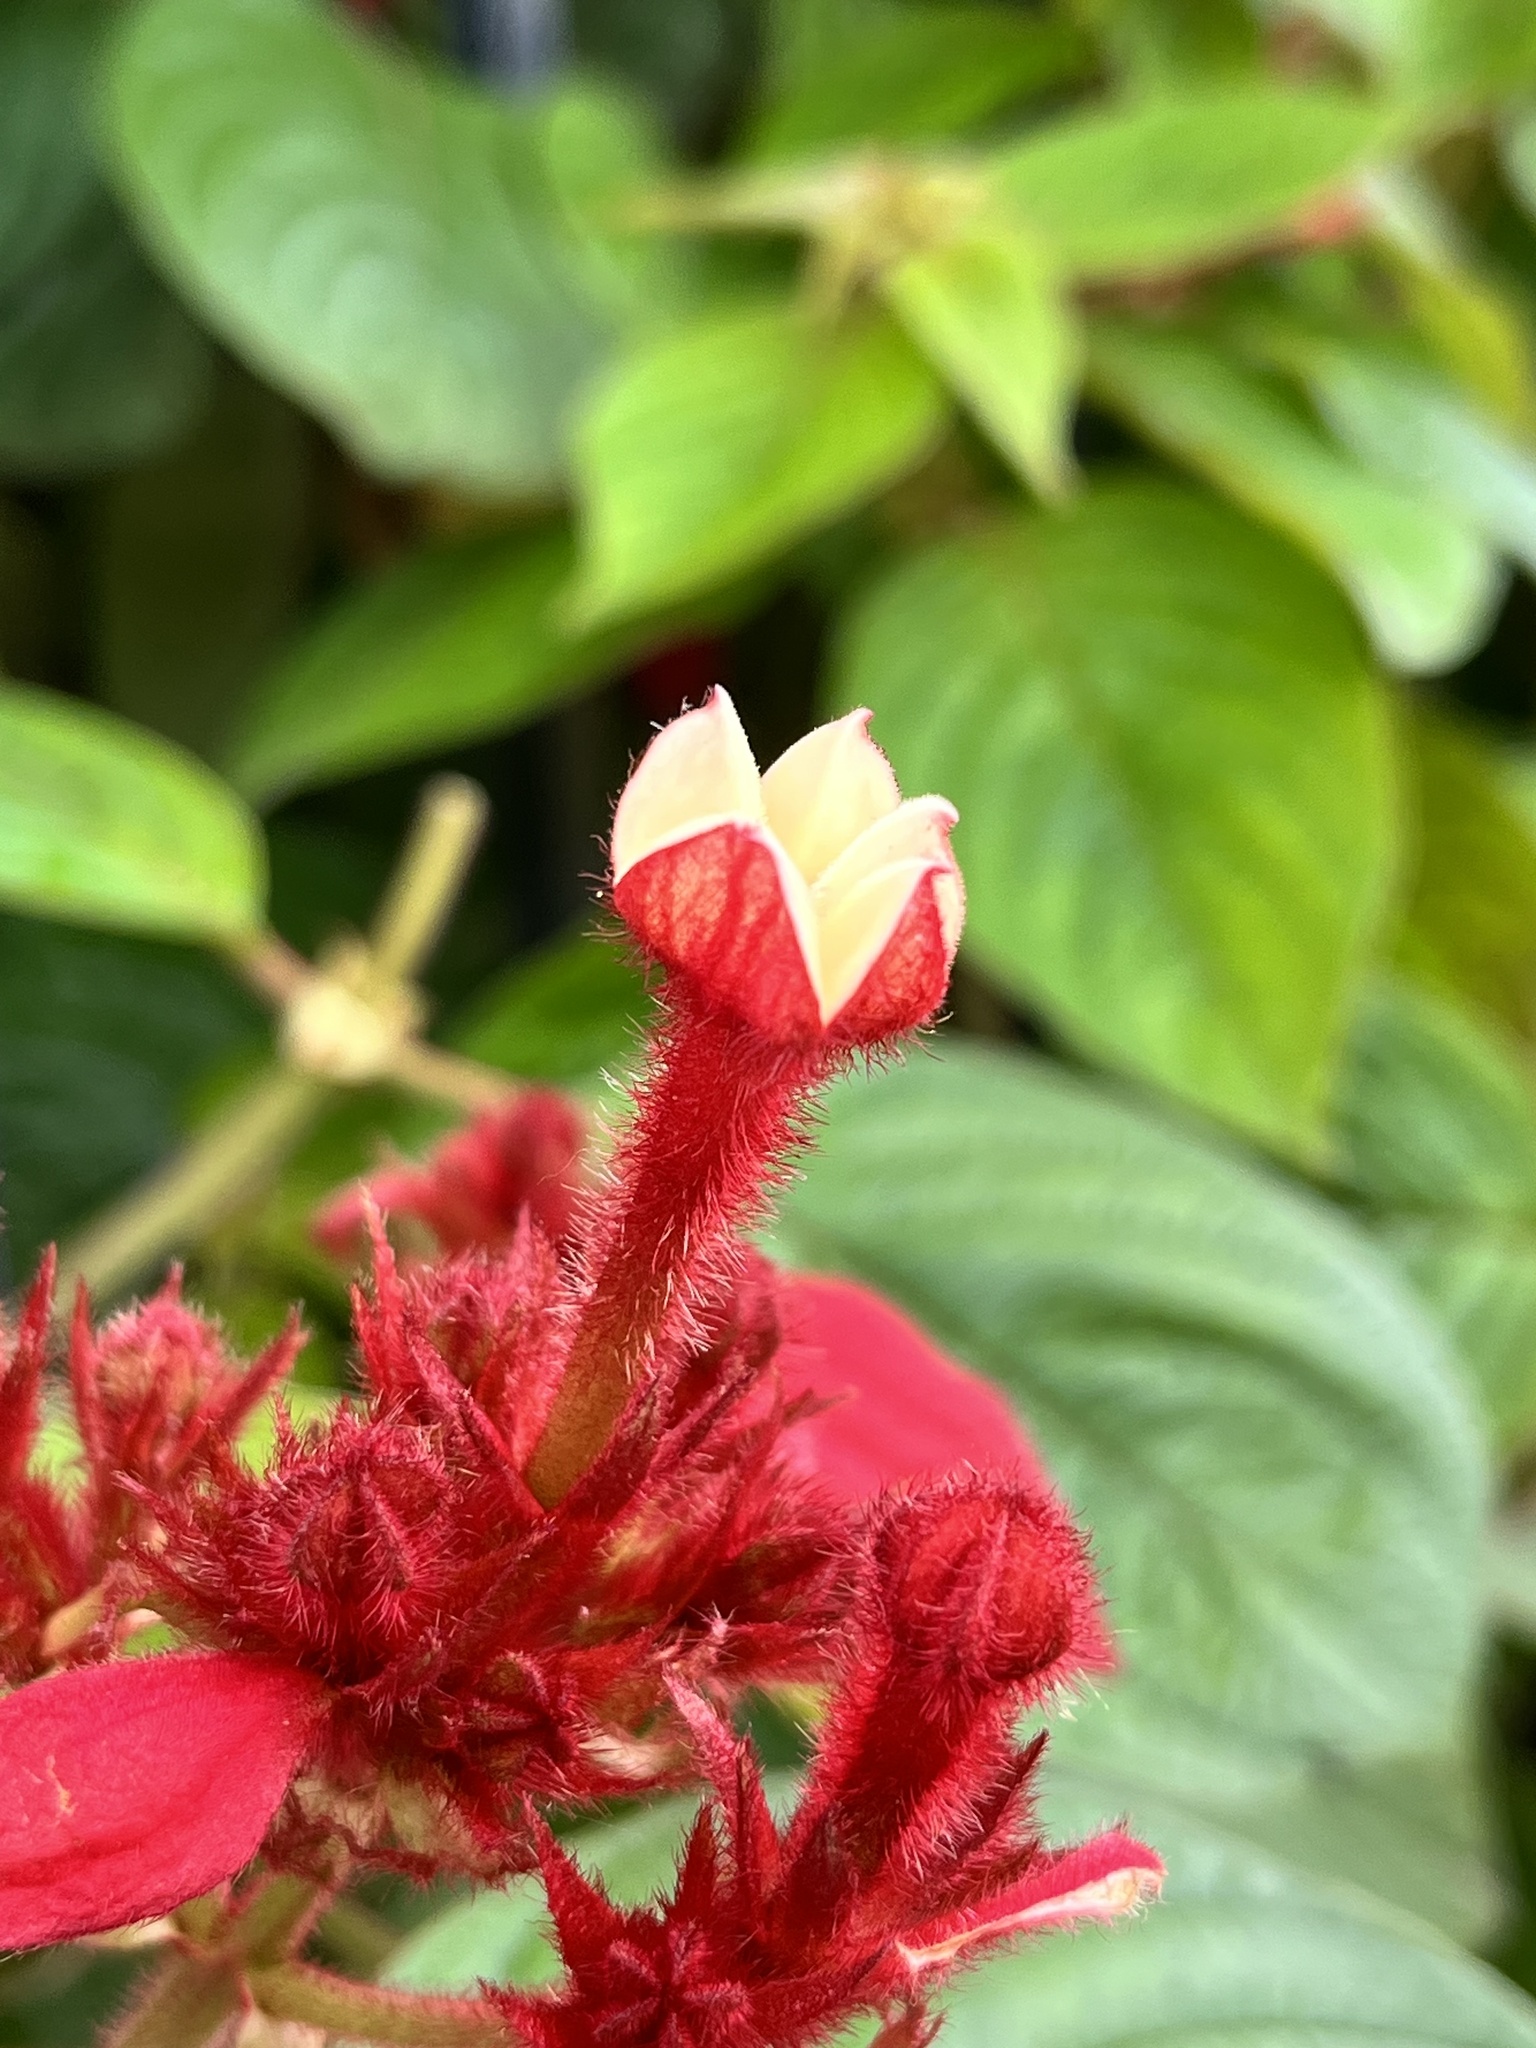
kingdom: Plantae
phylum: Tracheophyta
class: Magnoliopsida
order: Gentianales
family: Rubiaceae
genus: Mussaenda
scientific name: Mussaenda erythrophylla
